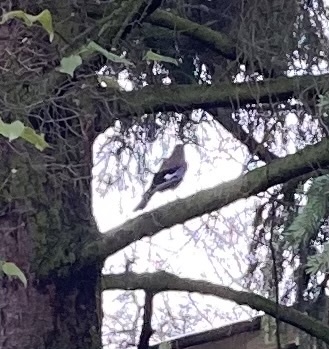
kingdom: Animalia
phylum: Chordata
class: Aves
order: Passeriformes
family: Corvidae
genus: Garrulus
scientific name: Garrulus glandarius
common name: Eurasian jay
